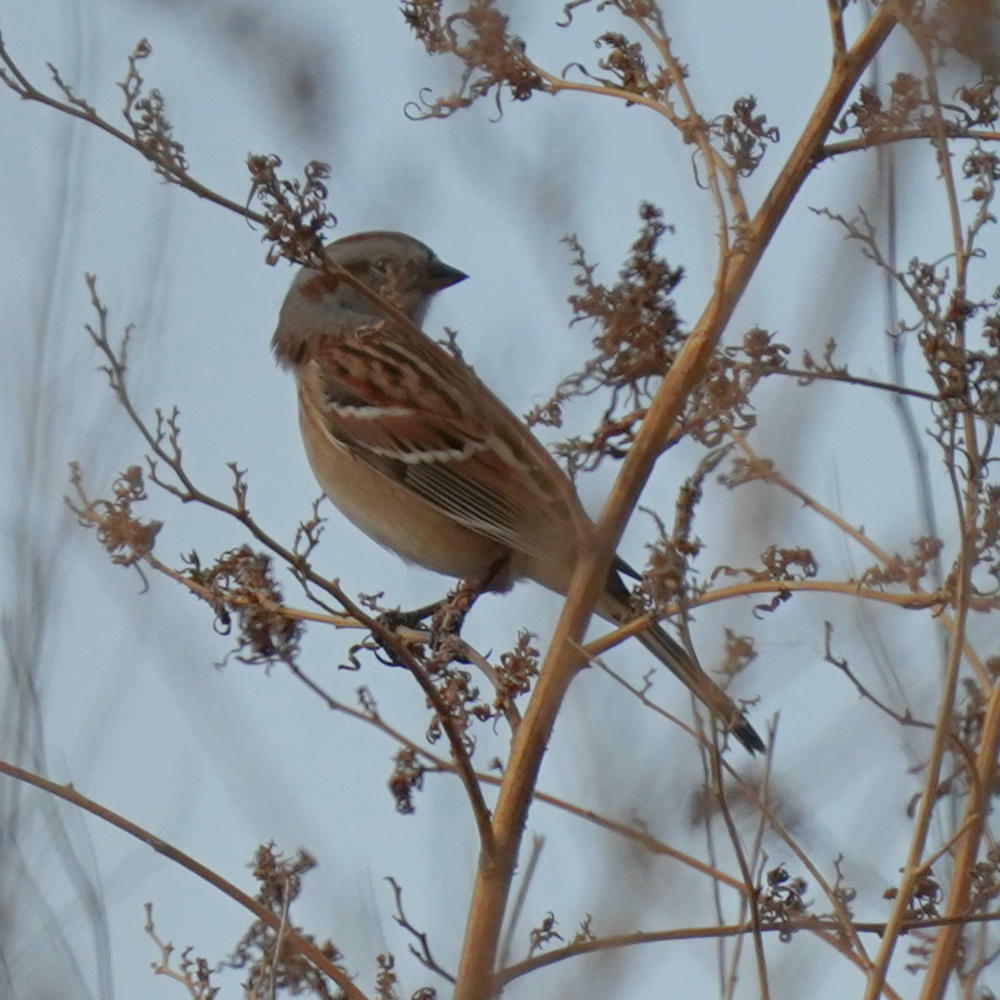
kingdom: Animalia
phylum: Chordata
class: Aves
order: Passeriformes
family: Passerellidae
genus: Spizelloides
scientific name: Spizelloides arborea
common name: American tree sparrow
